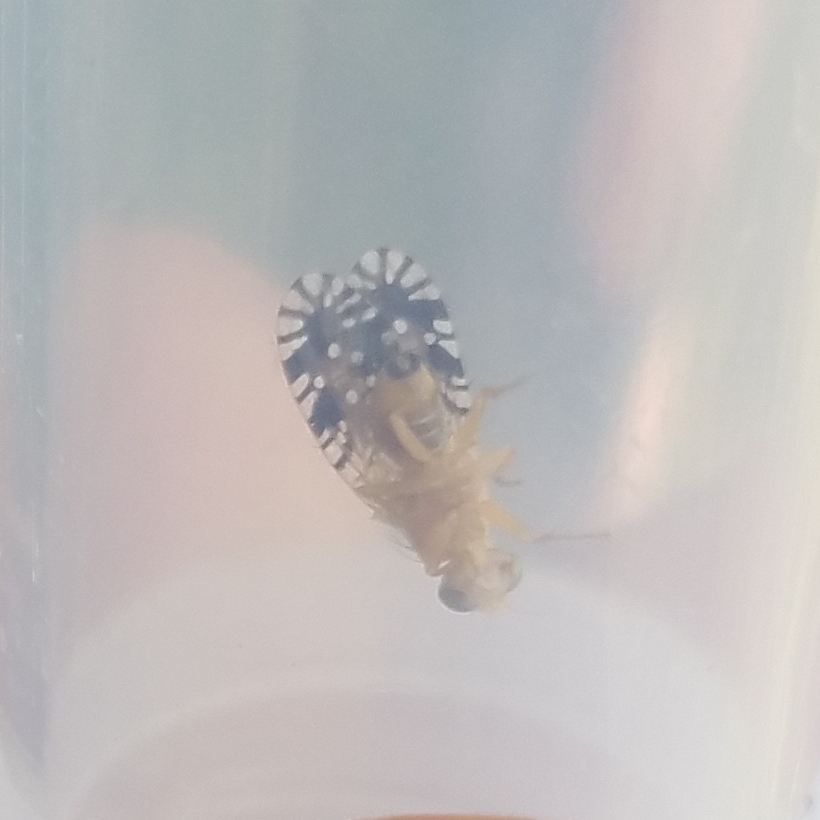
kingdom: Animalia
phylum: Arthropoda
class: Insecta
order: Diptera
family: Tephritidae
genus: Euaresta
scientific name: Euaresta festiva
